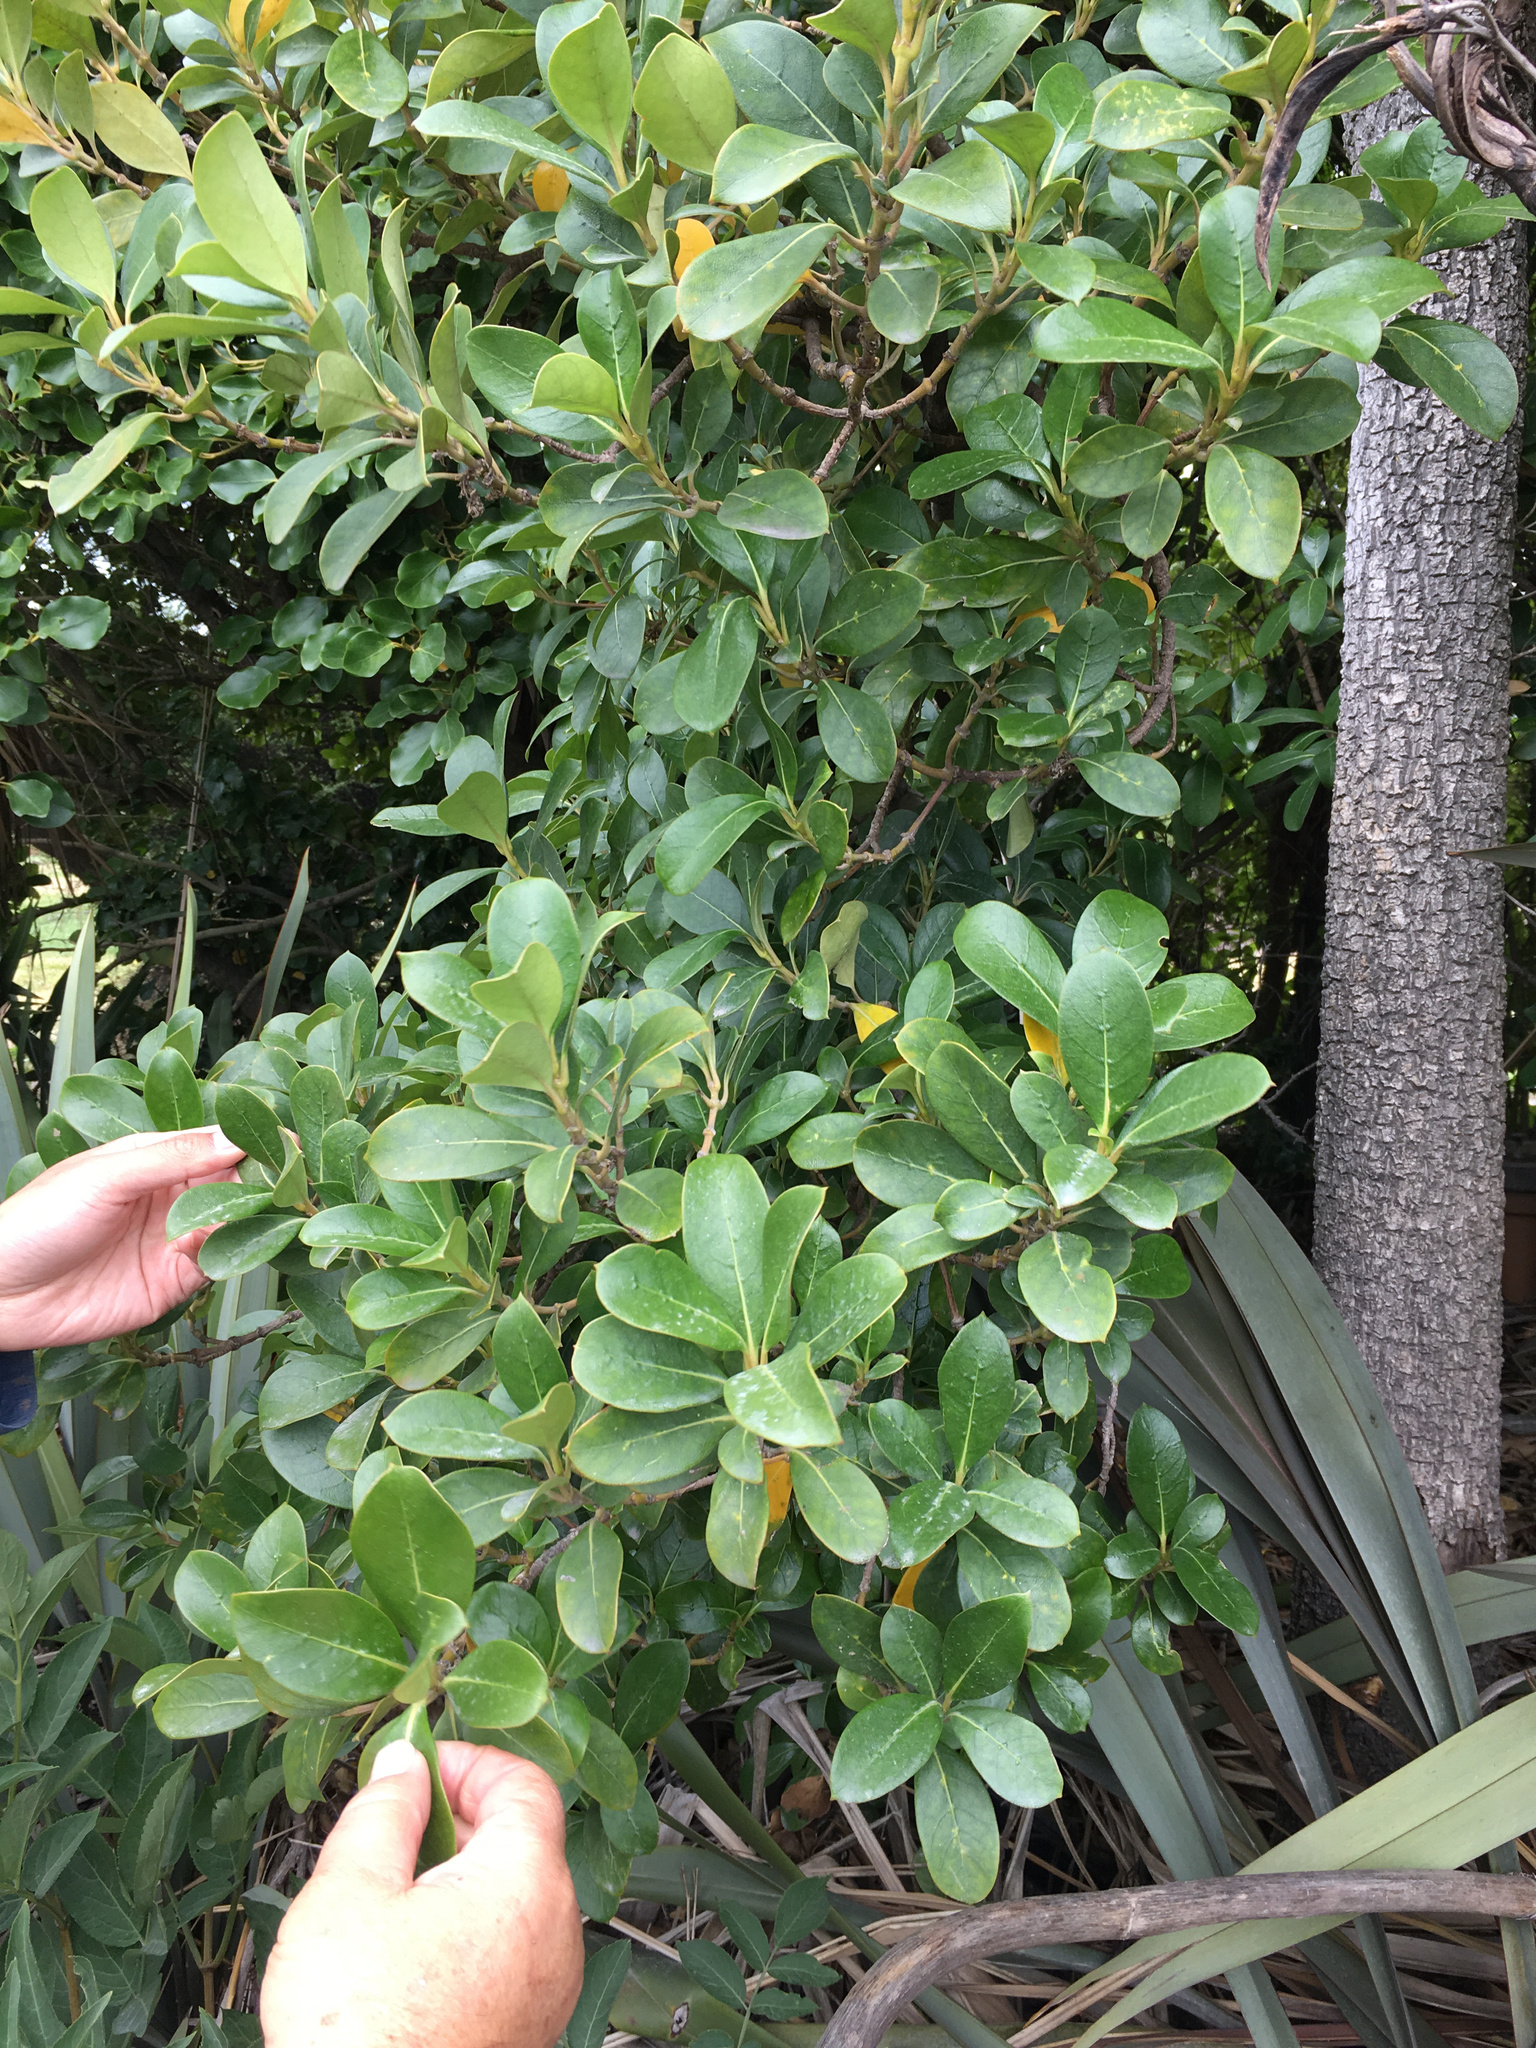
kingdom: Plantae
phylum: Tracheophyta
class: Magnoliopsida
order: Gentianales
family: Rubiaceae
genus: Coprosma
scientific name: Coprosma lucida
